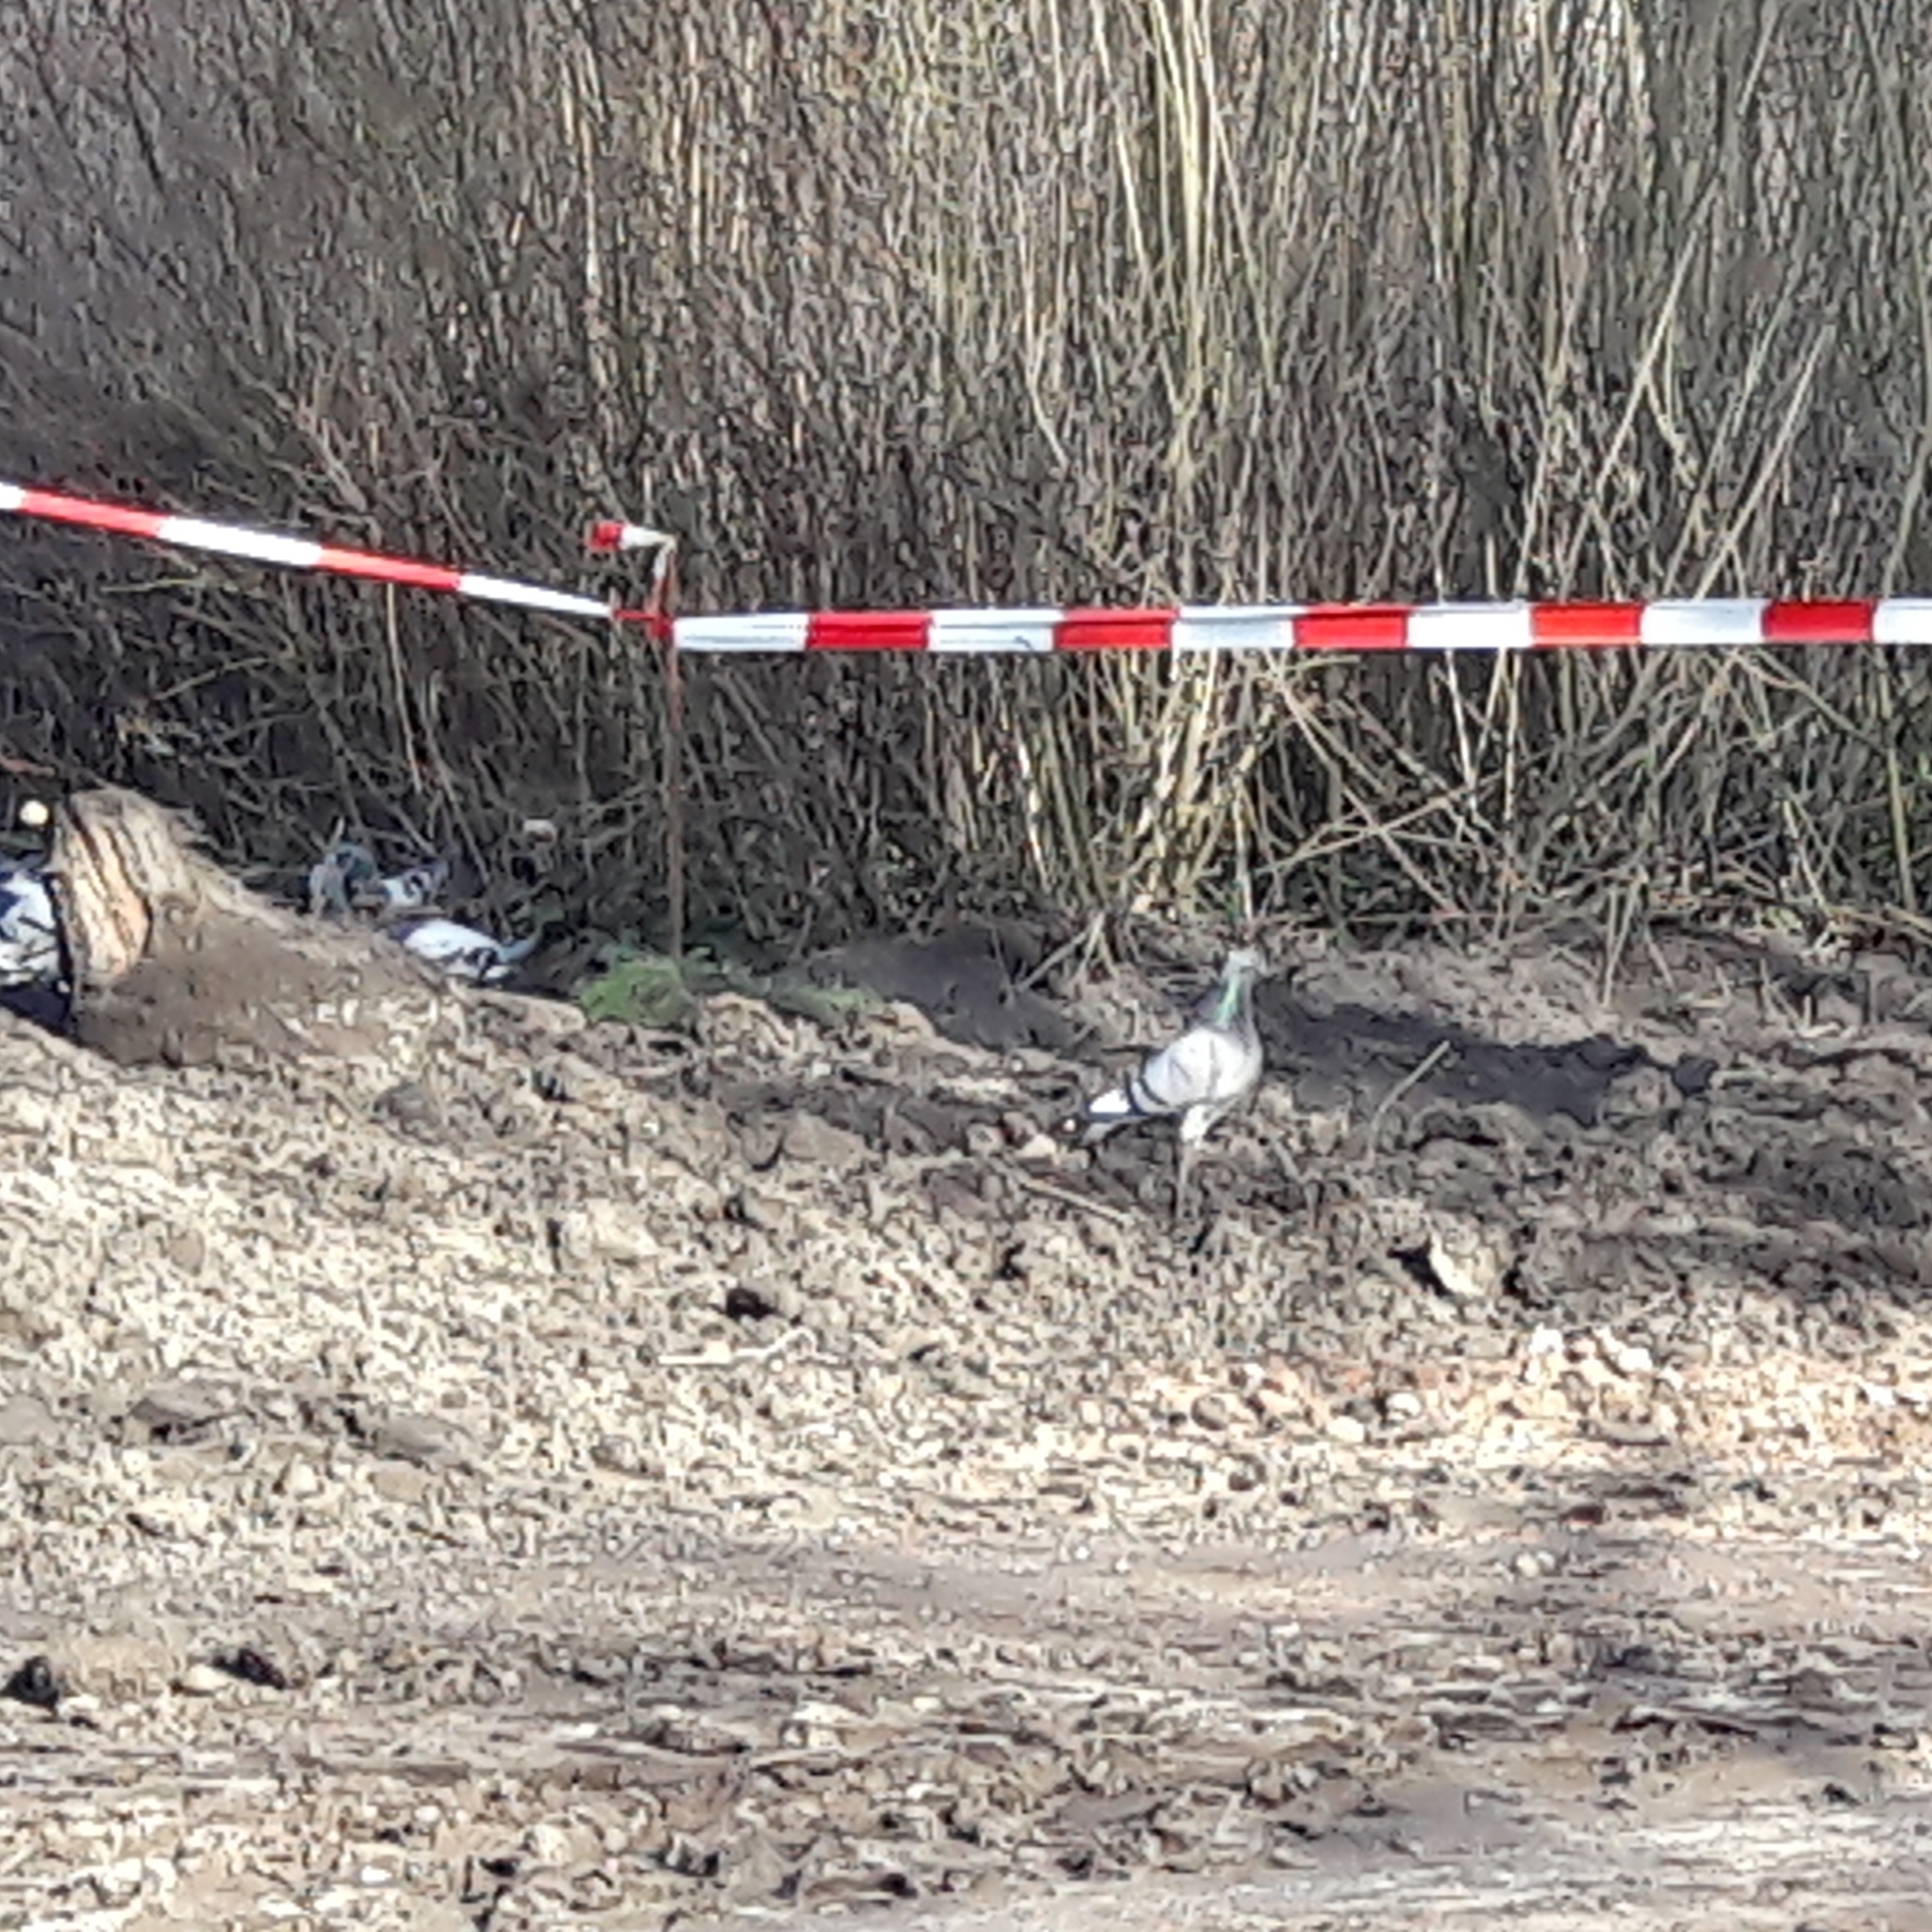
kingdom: Animalia
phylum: Chordata
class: Aves
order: Columbiformes
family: Columbidae
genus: Columba
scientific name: Columba livia
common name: Rock pigeon
